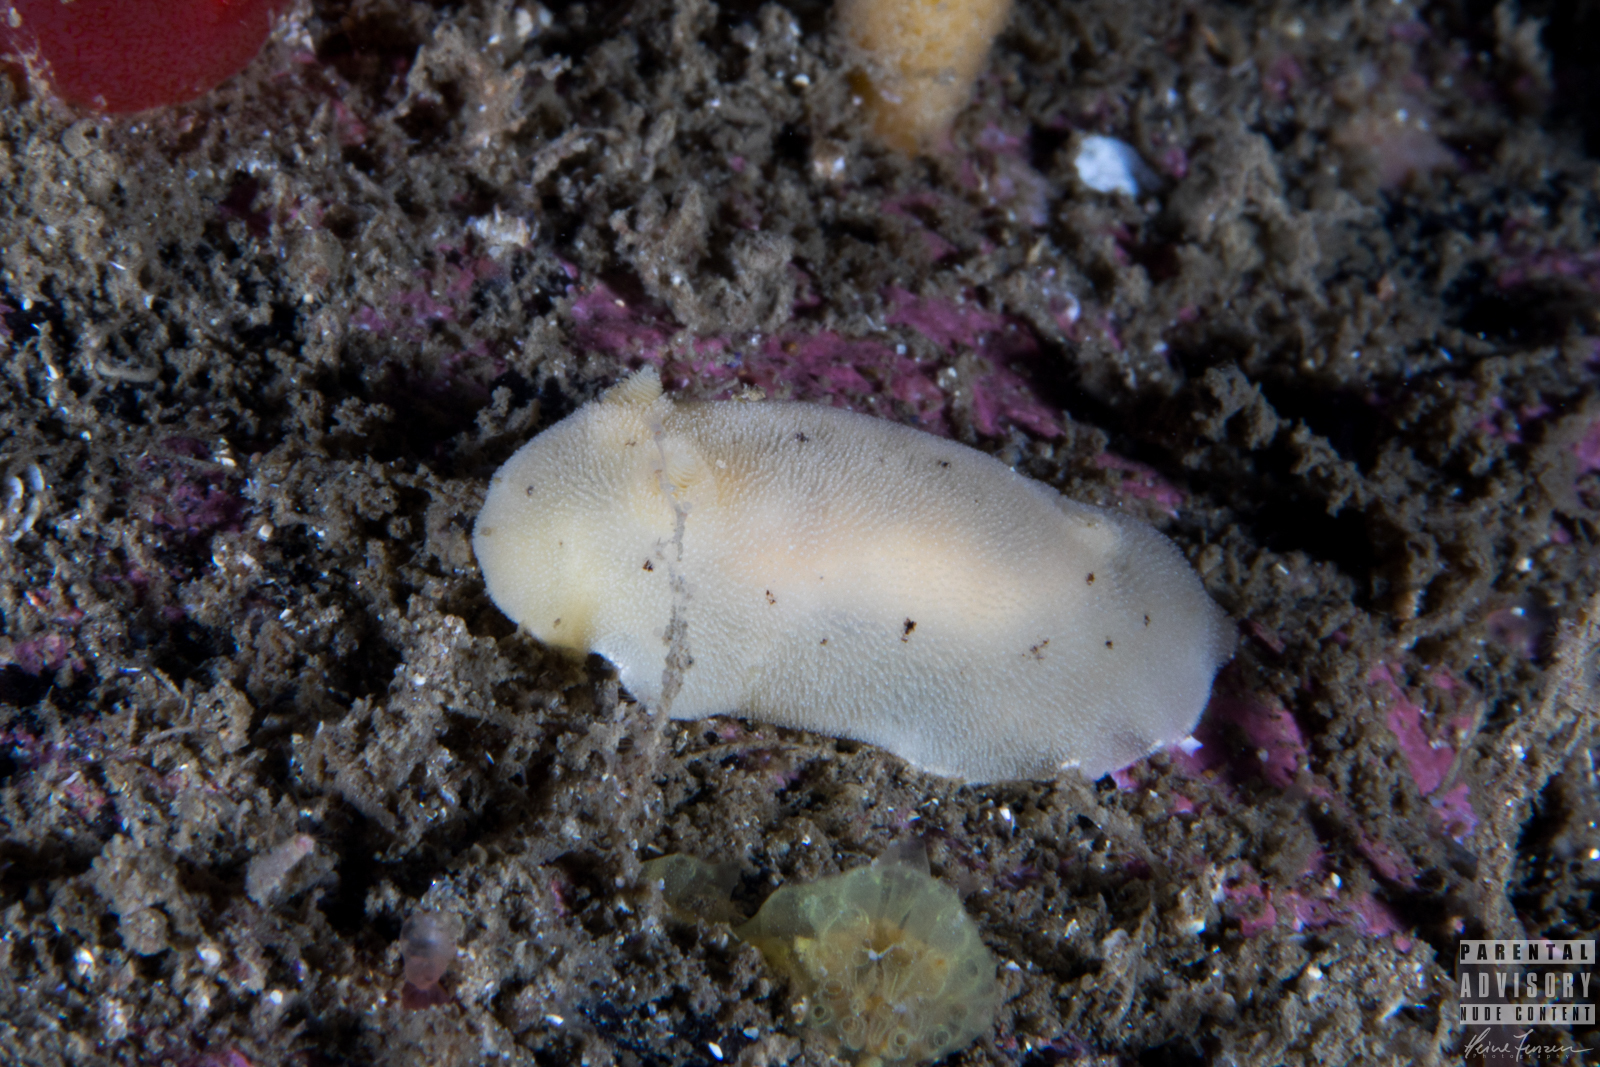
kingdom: Animalia
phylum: Mollusca
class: Gastropoda
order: Nudibranchia
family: Discodorididae
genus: Jorunna
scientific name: Jorunna tomentosa
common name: Grey sea slug
